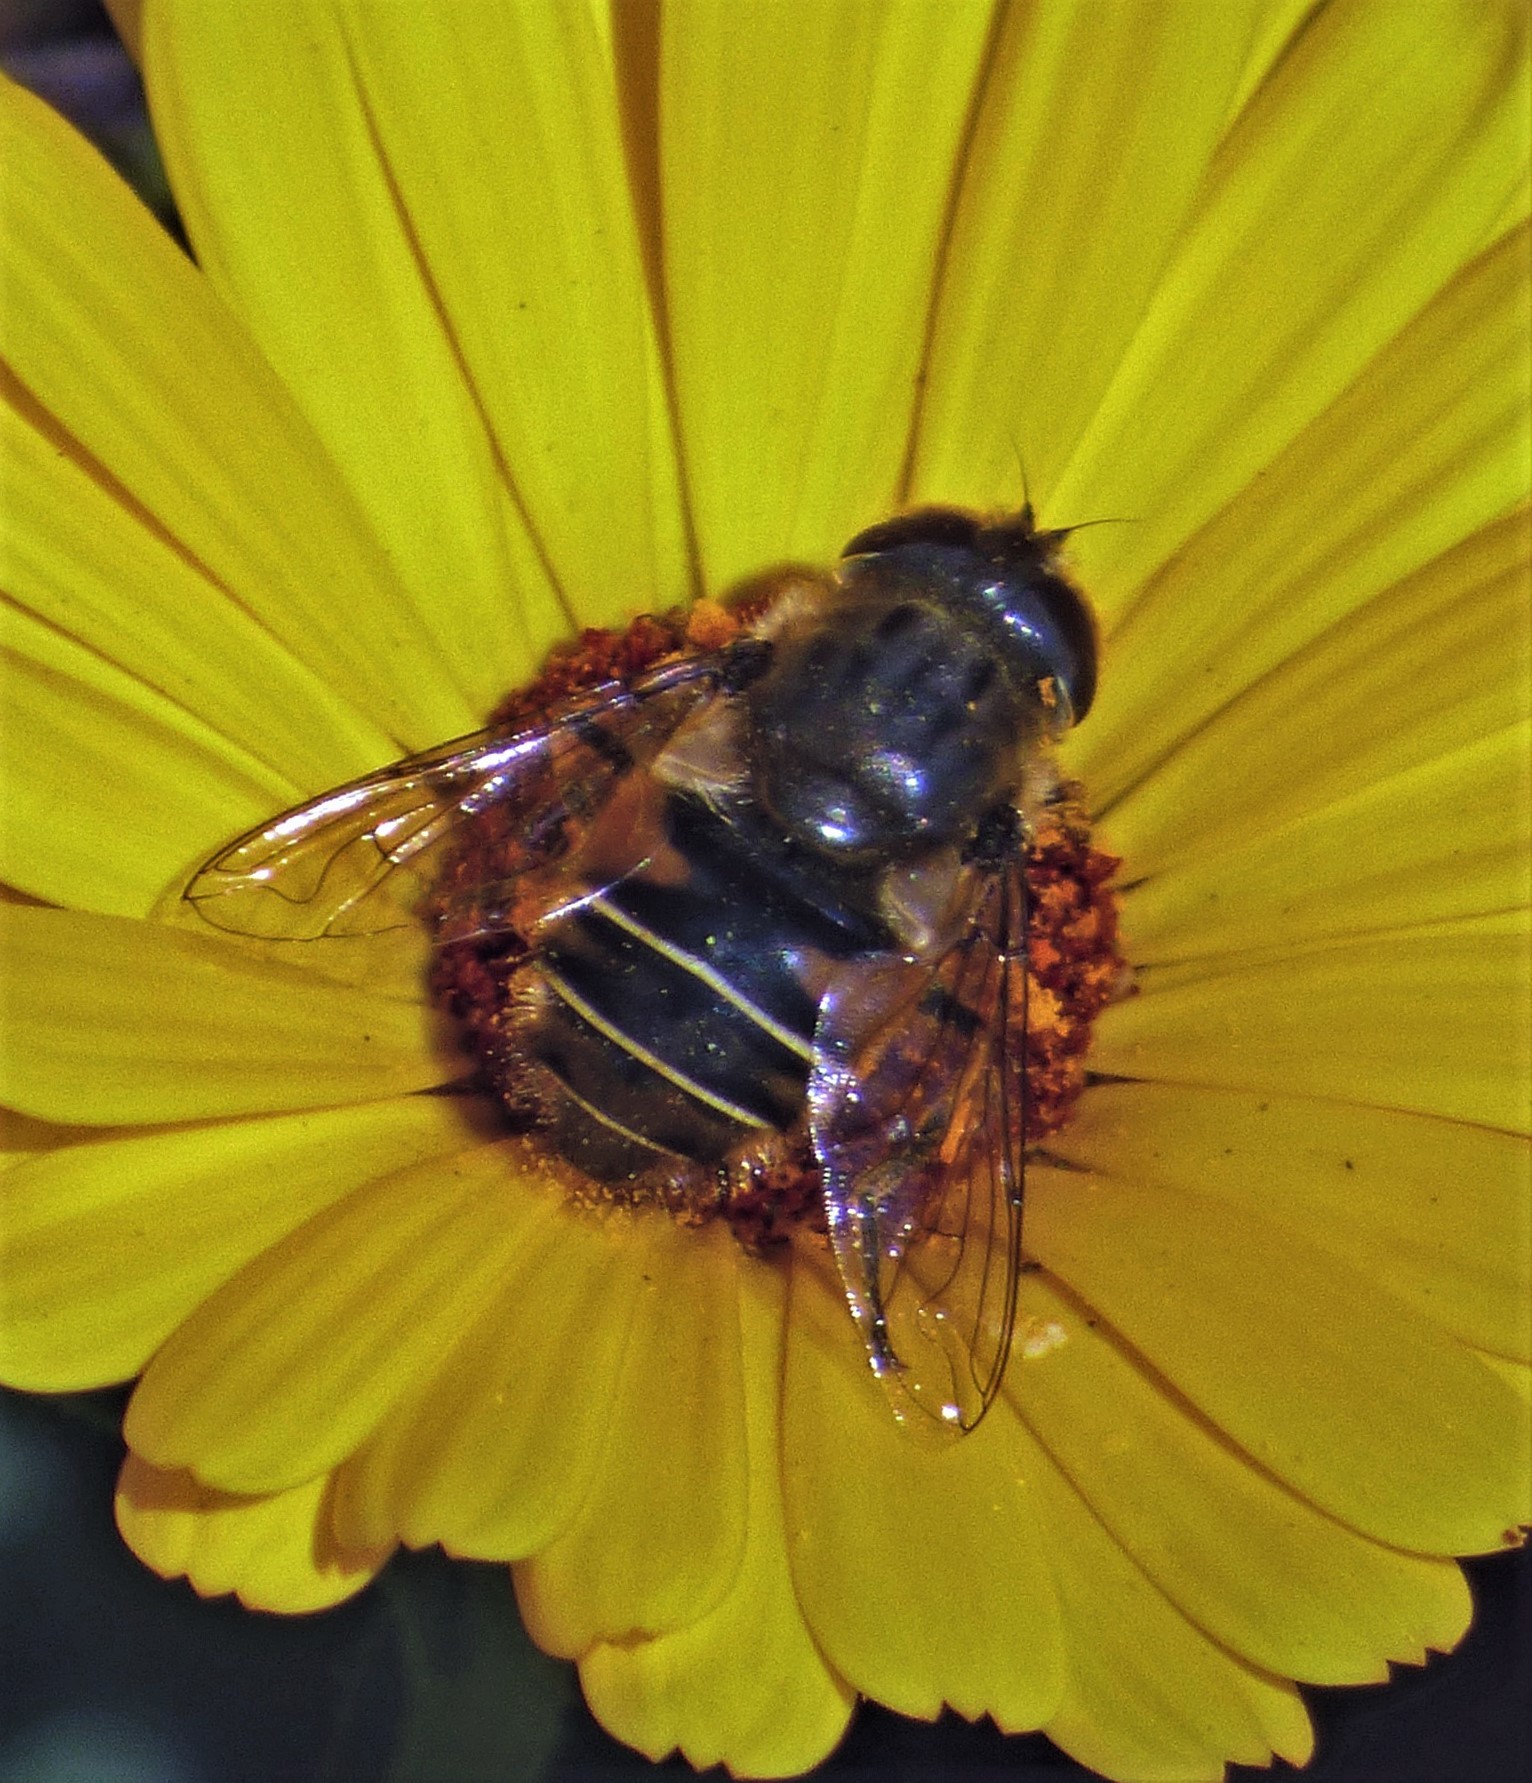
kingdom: Animalia
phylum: Arthropoda
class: Insecta
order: Diptera
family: Syrphidae
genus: Eristalis
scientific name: Eristalis croceimaculata
